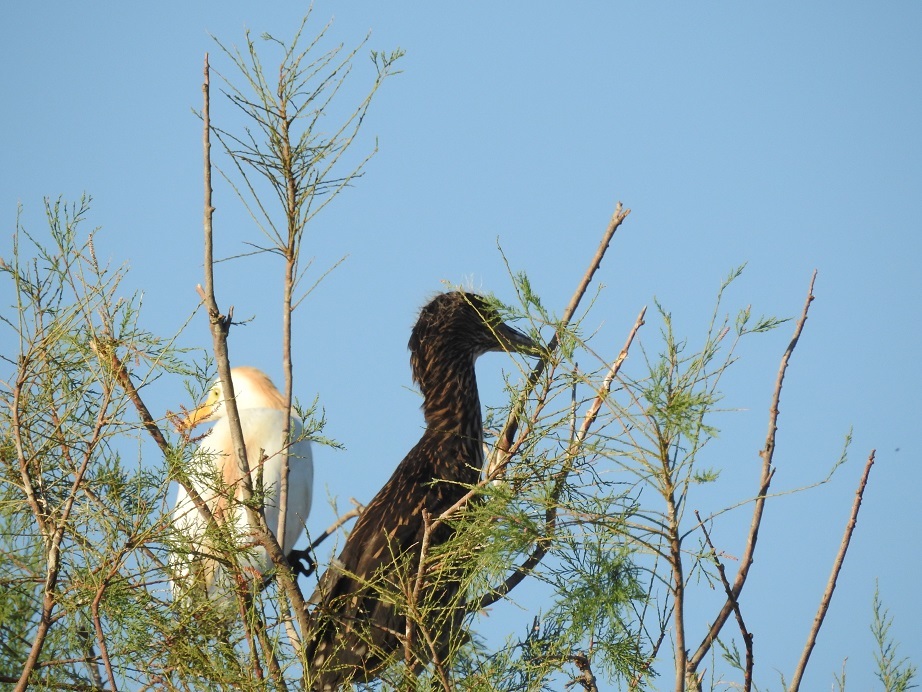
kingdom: Animalia
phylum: Chordata
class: Aves
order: Pelecaniformes
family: Ardeidae
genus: Nycticorax
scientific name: Nycticorax nycticorax
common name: Black-crowned night heron
